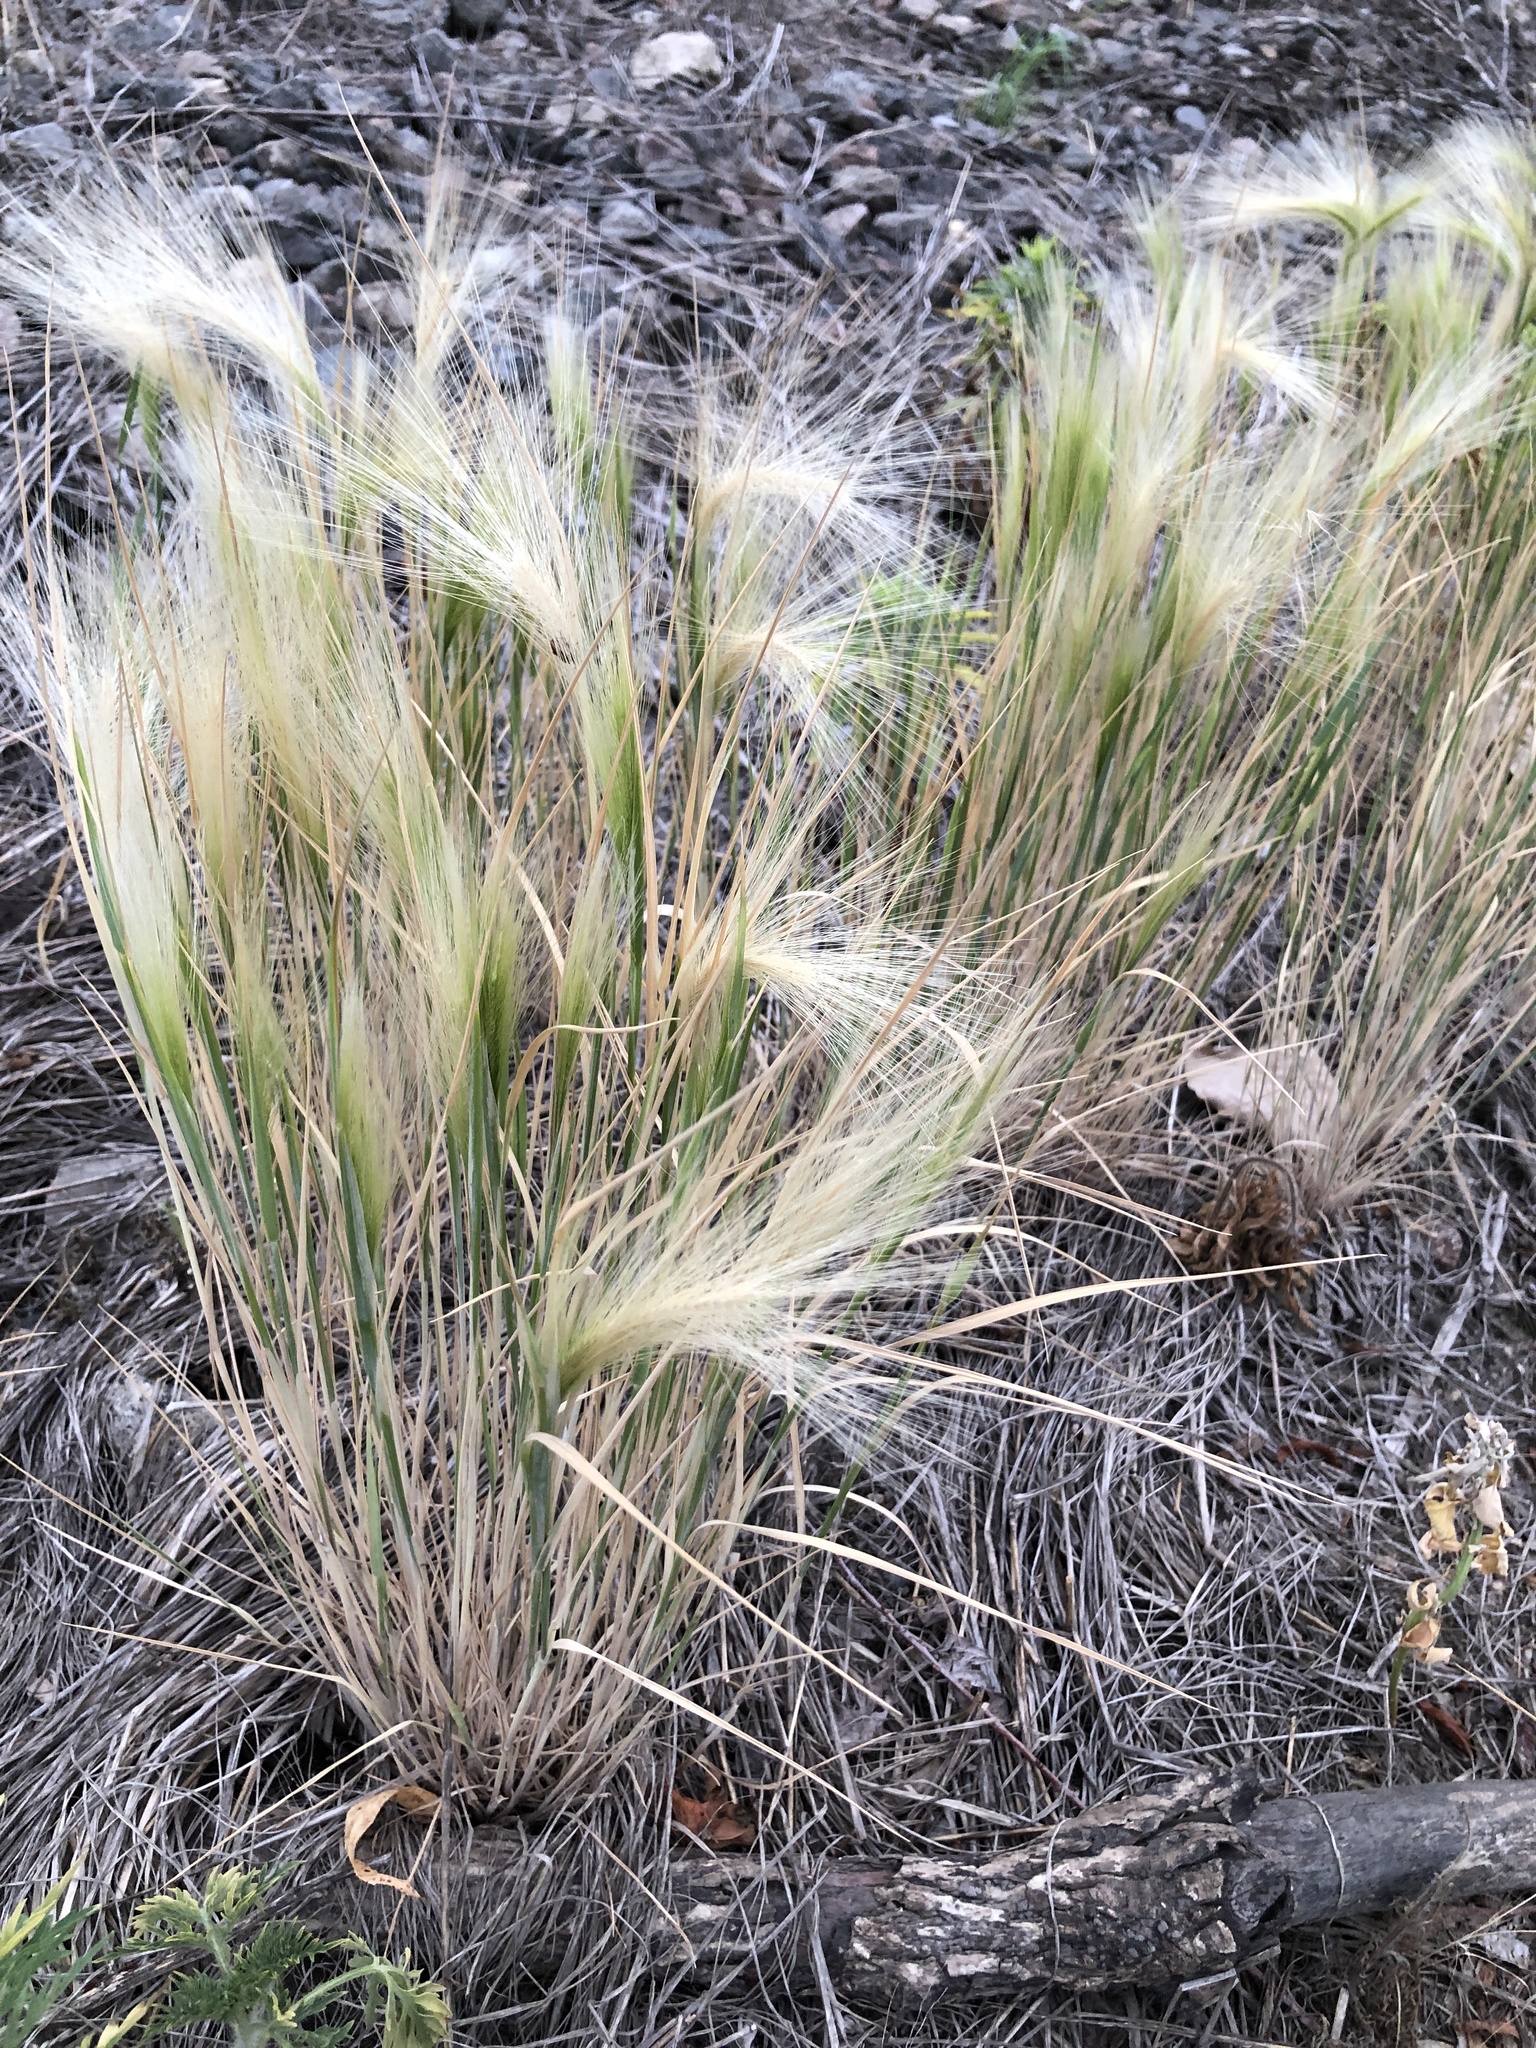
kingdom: Plantae
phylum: Tracheophyta
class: Liliopsida
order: Poales
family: Poaceae
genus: Hordeum
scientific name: Hordeum jubatum
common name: Foxtail barley
